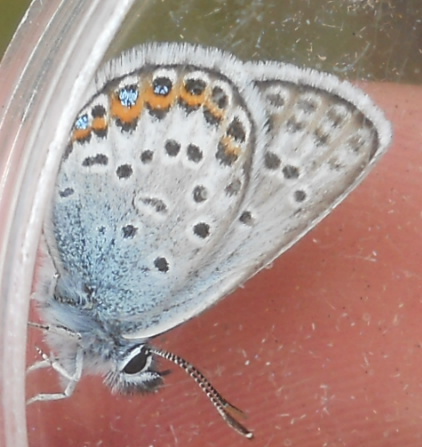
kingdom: Animalia
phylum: Arthropoda
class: Insecta
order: Lepidoptera
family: Lycaenidae
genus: Plebejus
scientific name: Plebejus argus
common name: Silver-studded blue
